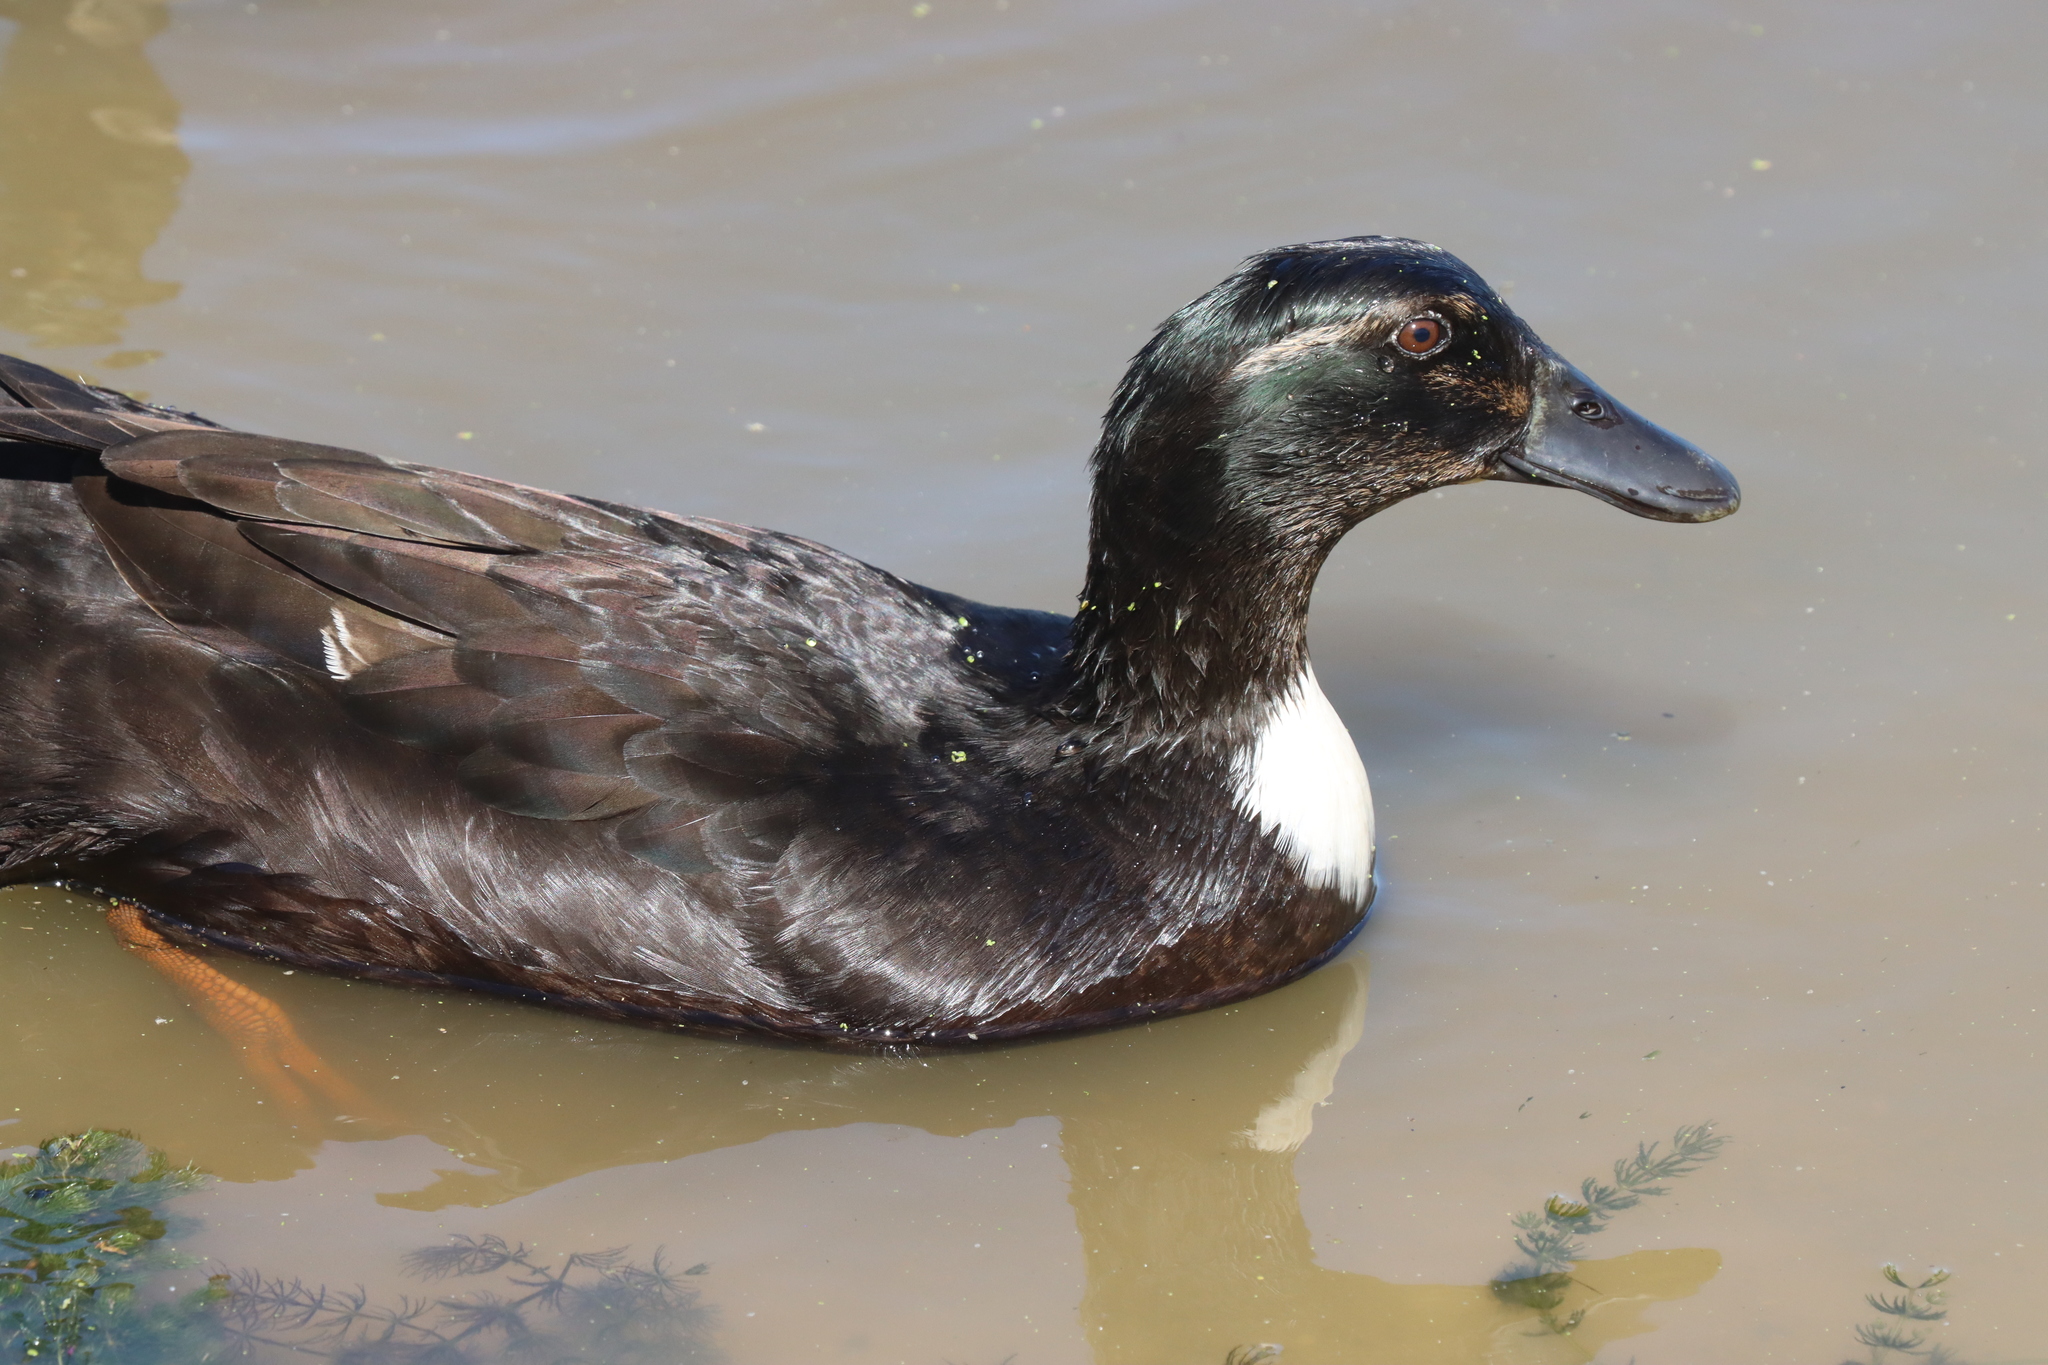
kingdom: Animalia
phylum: Chordata
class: Aves
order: Anseriformes
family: Anatidae
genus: Anas
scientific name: Anas platyrhynchos
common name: Mallard
